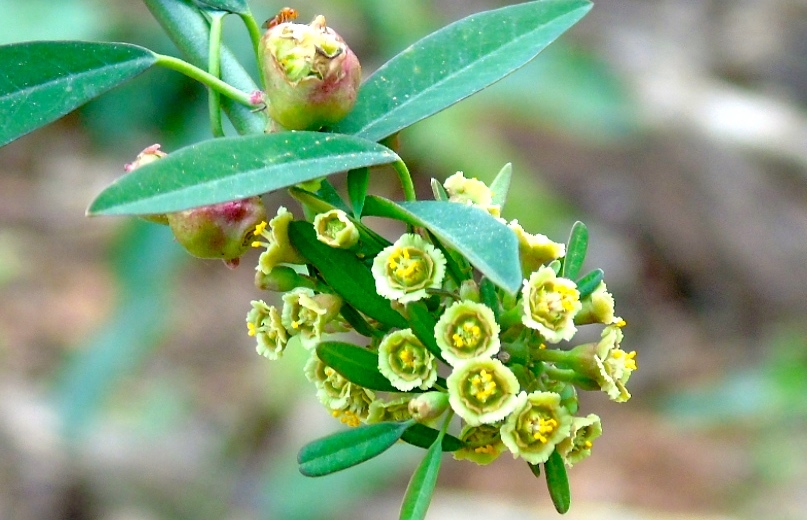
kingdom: Plantae
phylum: Tracheophyta
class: Magnoliopsida
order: Malpighiales
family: Euphorbiaceae
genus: Euphorbia
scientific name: Euphorbia
